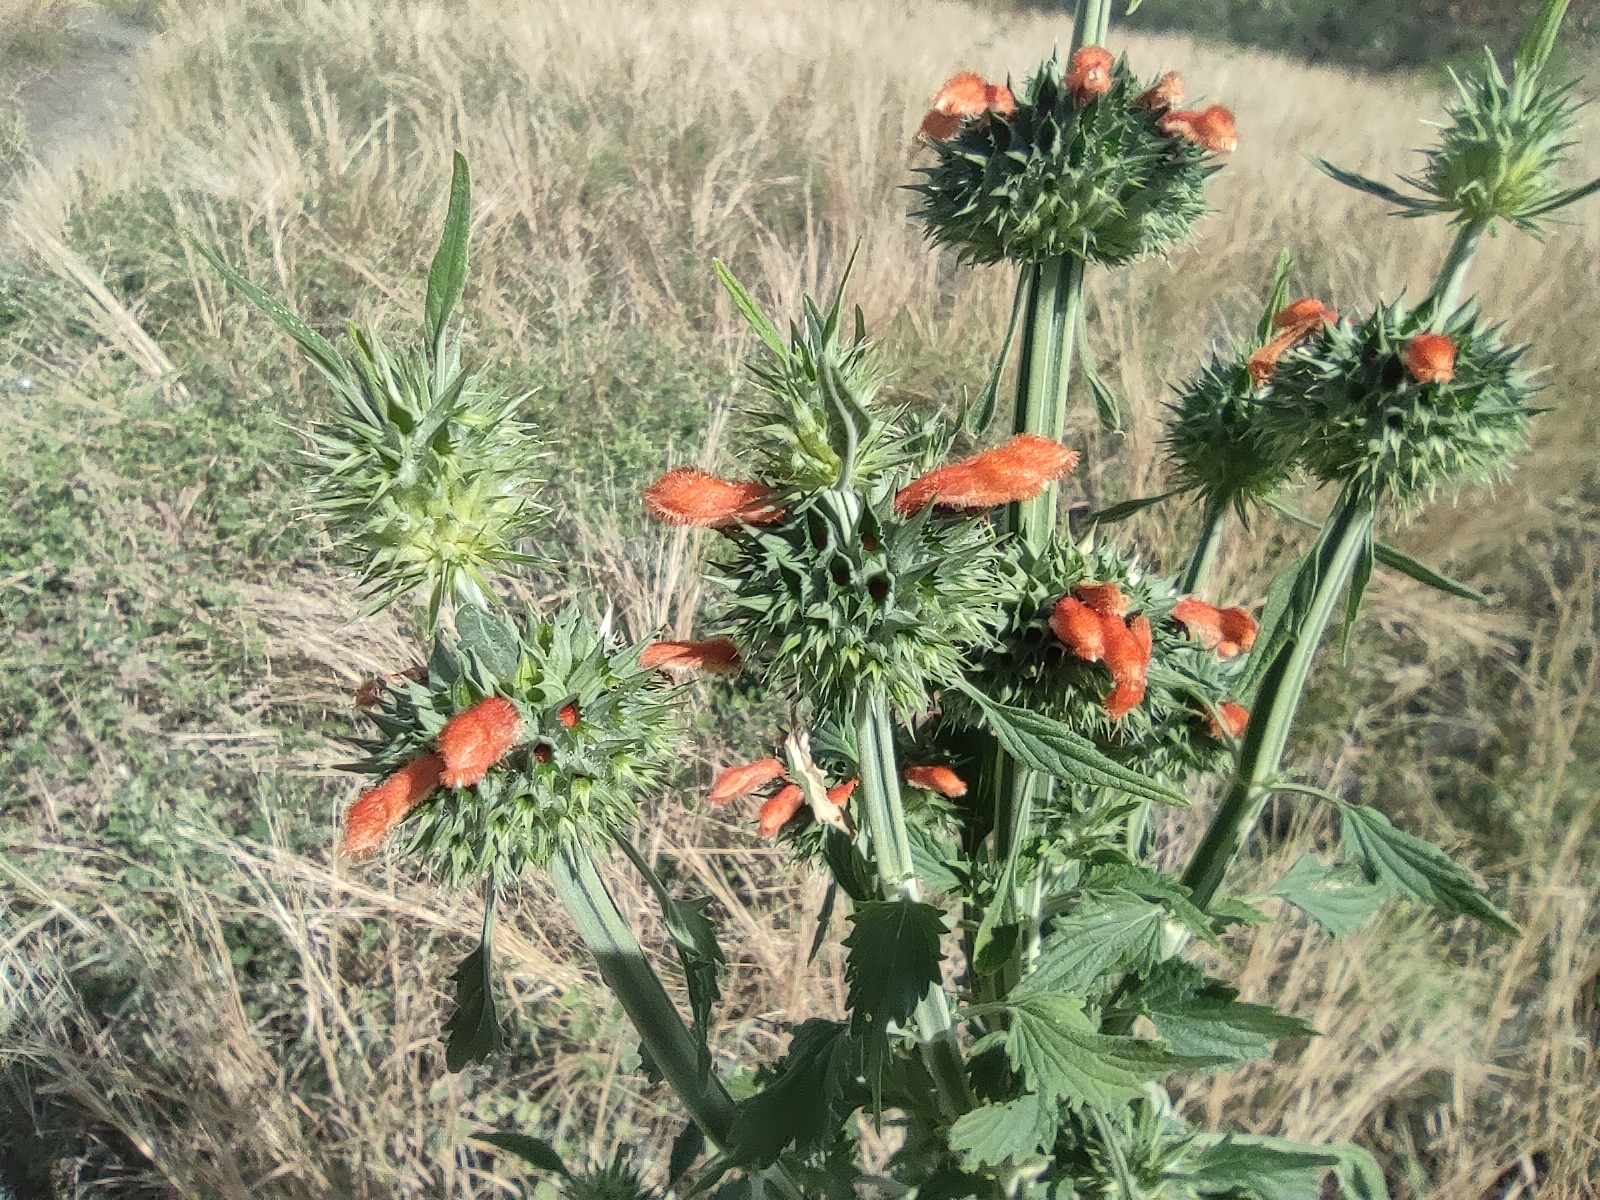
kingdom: Plantae
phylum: Tracheophyta
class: Magnoliopsida
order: Lamiales
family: Lamiaceae
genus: Leonotis
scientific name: Leonotis nepetifolia
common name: Christmas candlestick
